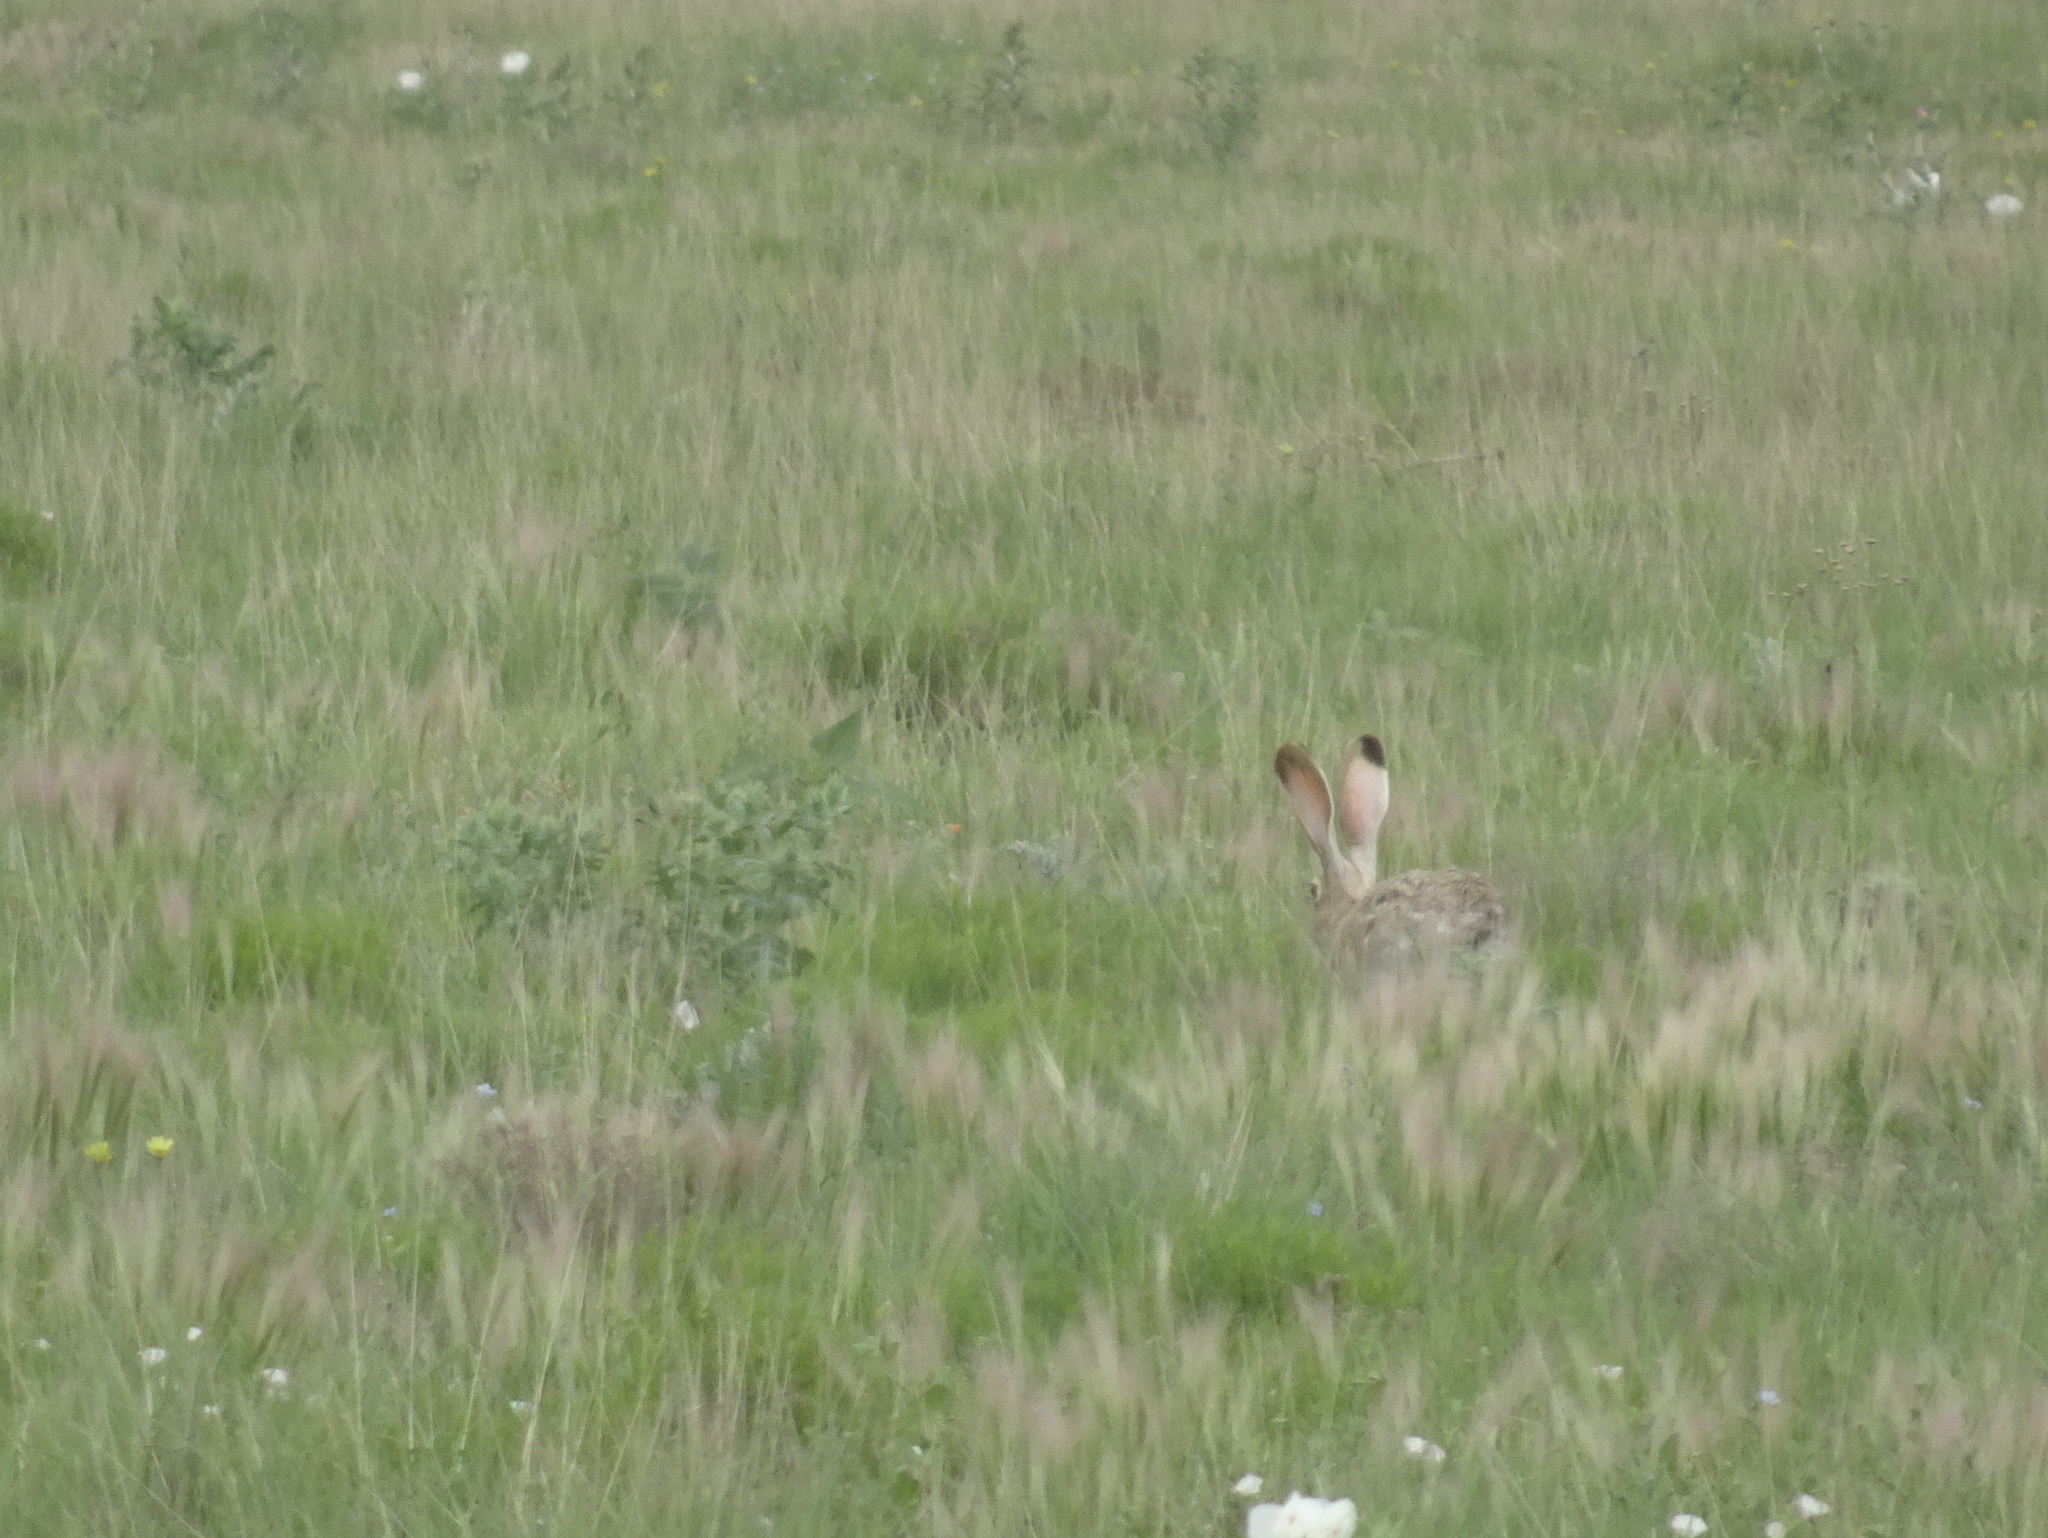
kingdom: Animalia
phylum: Chordata
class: Mammalia
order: Lagomorpha
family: Leporidae
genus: Lepus
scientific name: Lepus californicus
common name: Black-tailed jackrabbit
